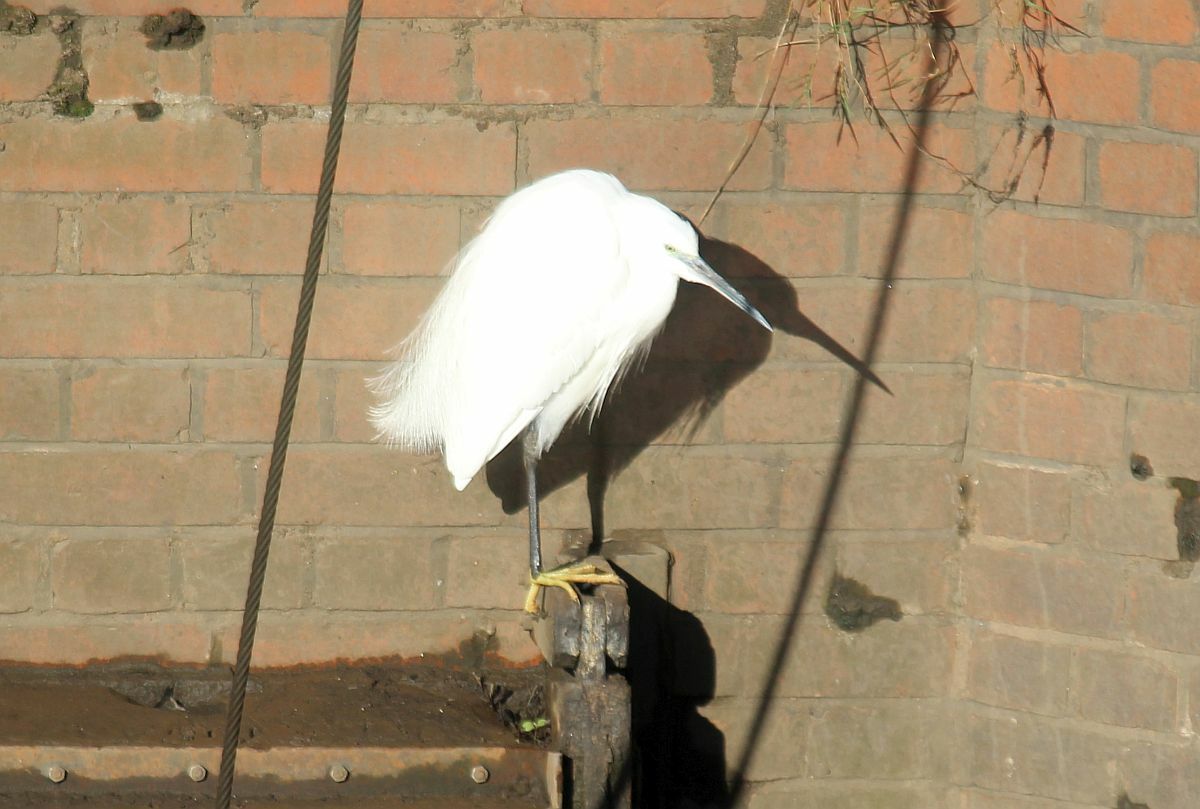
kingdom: Animalia
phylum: Chordata
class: Aves
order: Pelecaniformes
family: Ardeidae
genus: Egretta
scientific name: Egretta garzetta
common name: Little egret
